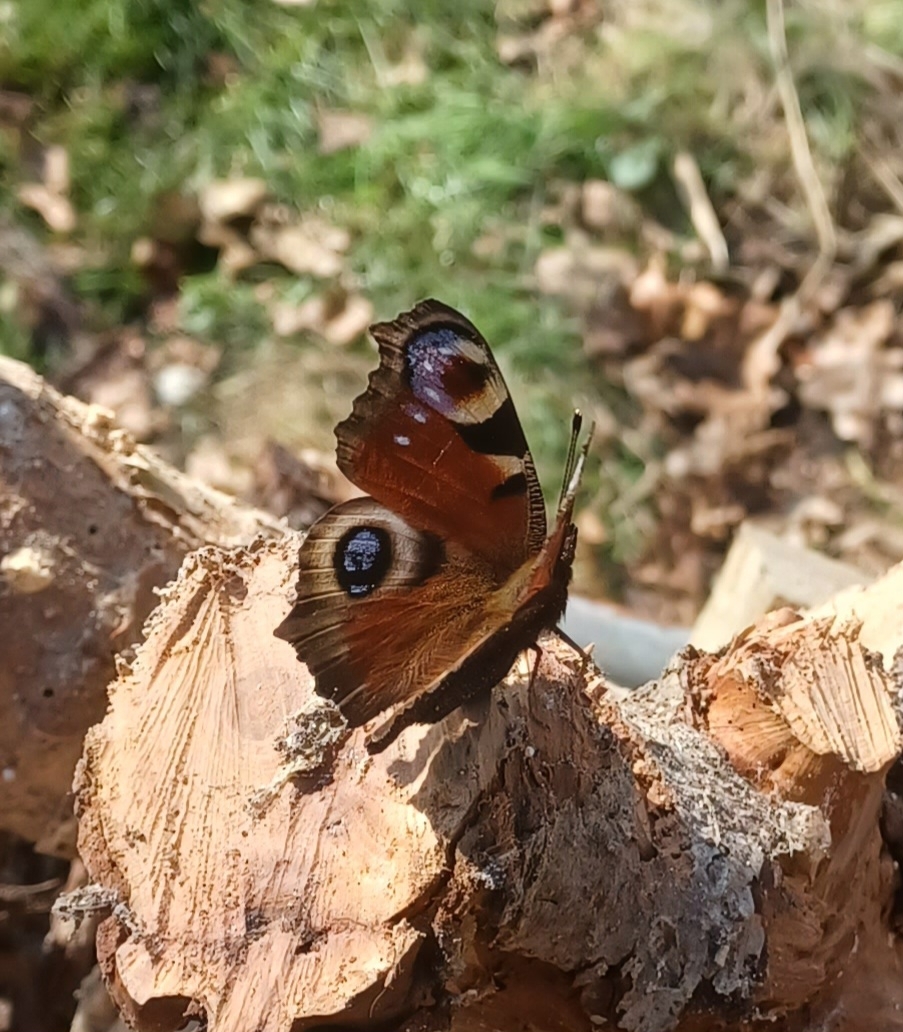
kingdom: Animalia
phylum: Arthropoda
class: Insecta
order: Lepidoptera
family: Nymphalidae
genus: Aglais
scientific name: Aglais io
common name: Peacock
